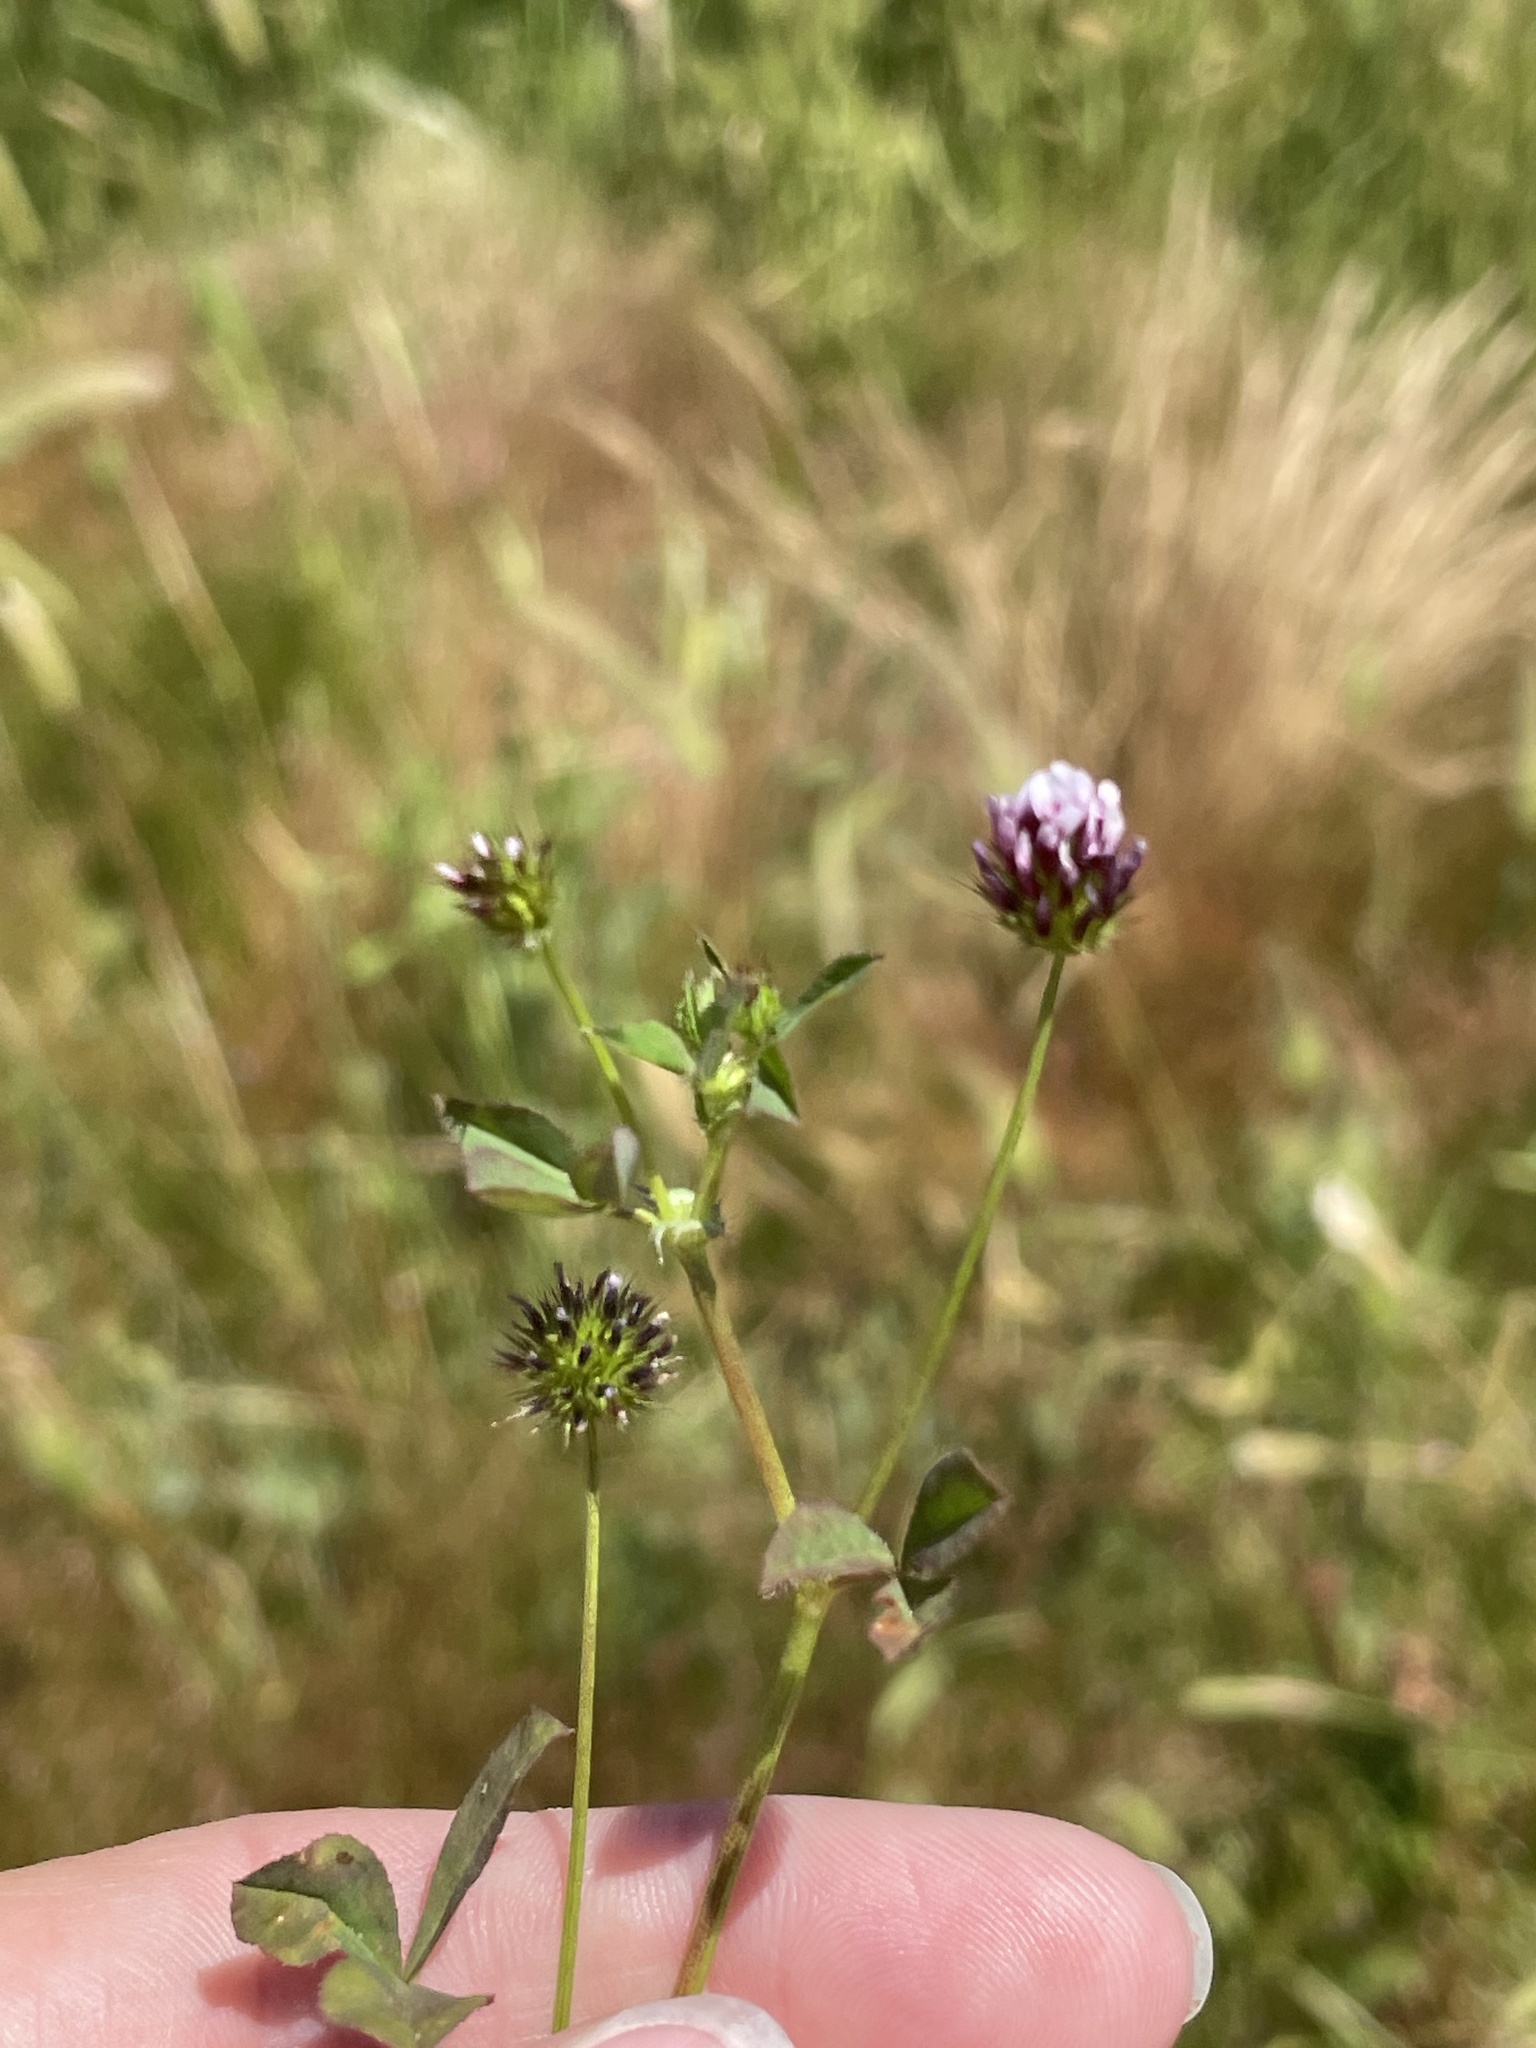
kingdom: Plantae
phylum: Tracheophyta
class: Magnoliopsida
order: Fabales
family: Fabaceae
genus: Trifolium
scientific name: Trifolium variegatum
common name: Whitetip clover
